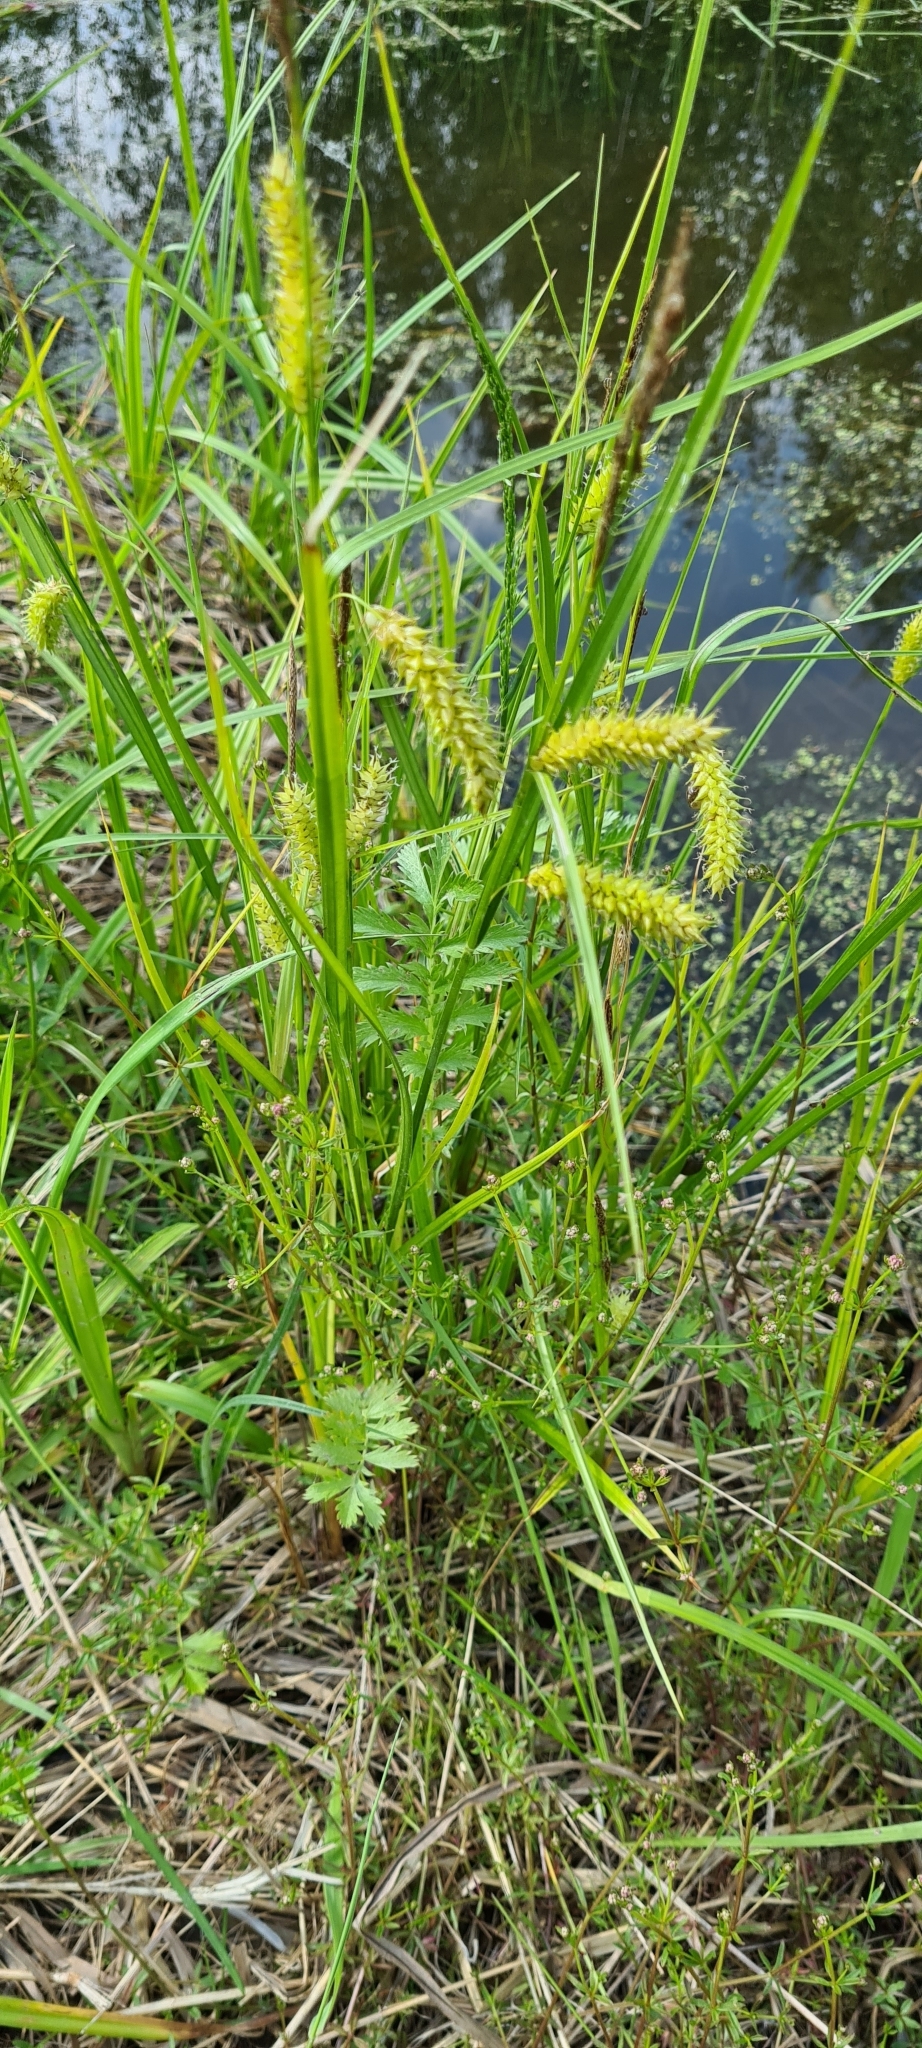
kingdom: Plantae
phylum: Tracheophyta
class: Liliopsida
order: Poales
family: Cyperaceae
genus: Carex
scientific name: Carex vesicaria
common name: Bladder-sedge
